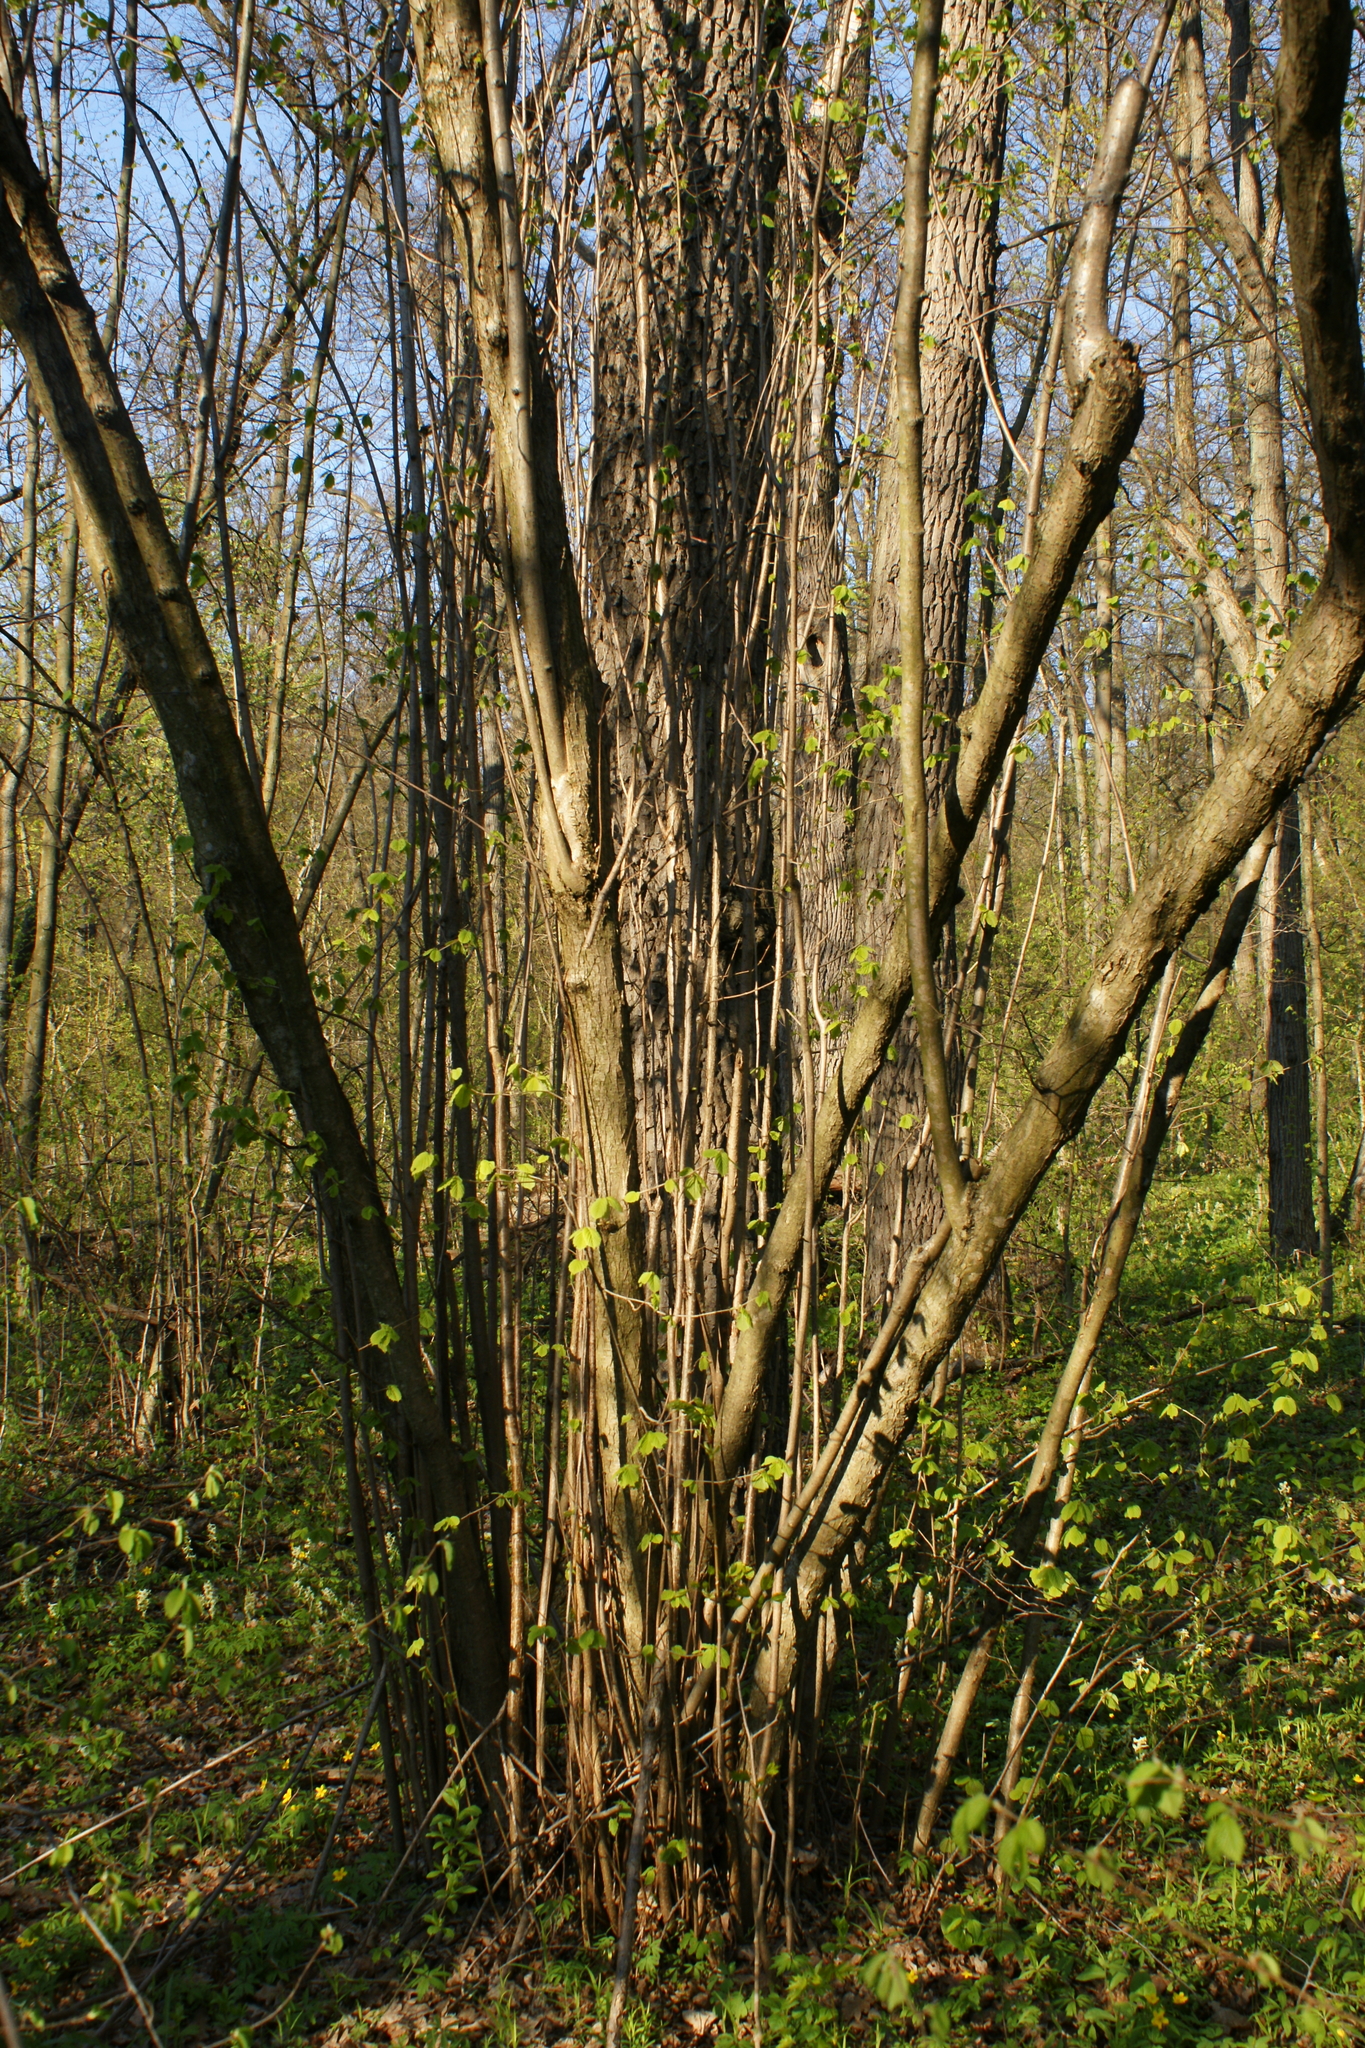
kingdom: Plantae
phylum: Tracheophyta
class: Magnoliopsida
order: Fagales
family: Betulaceae
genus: Corylus
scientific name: Corylus avellana
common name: European hazel
